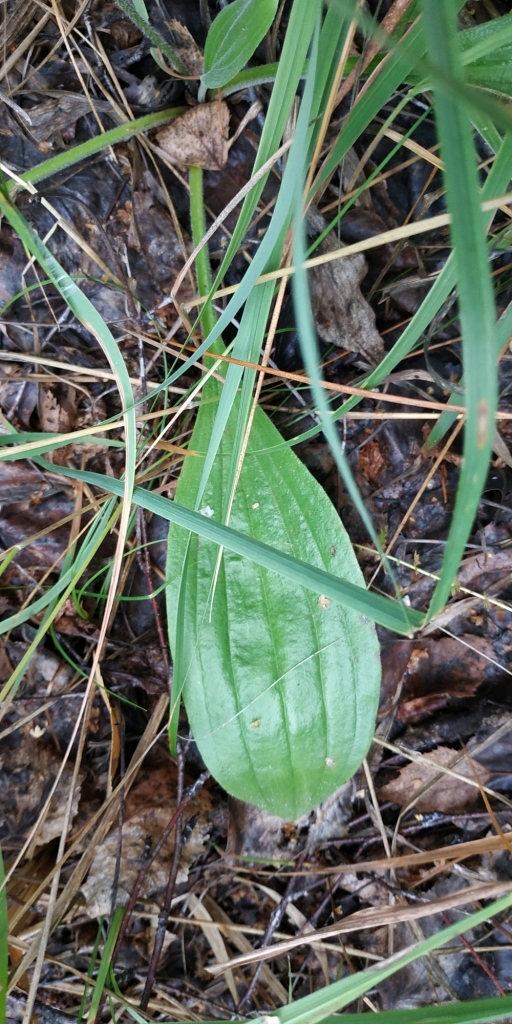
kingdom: Plantae
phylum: Tracheophyta
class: Magnoliopsida
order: Lamiales
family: Plantaginaceae
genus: Plantago
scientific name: Plantago media
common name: Hoary plantain
